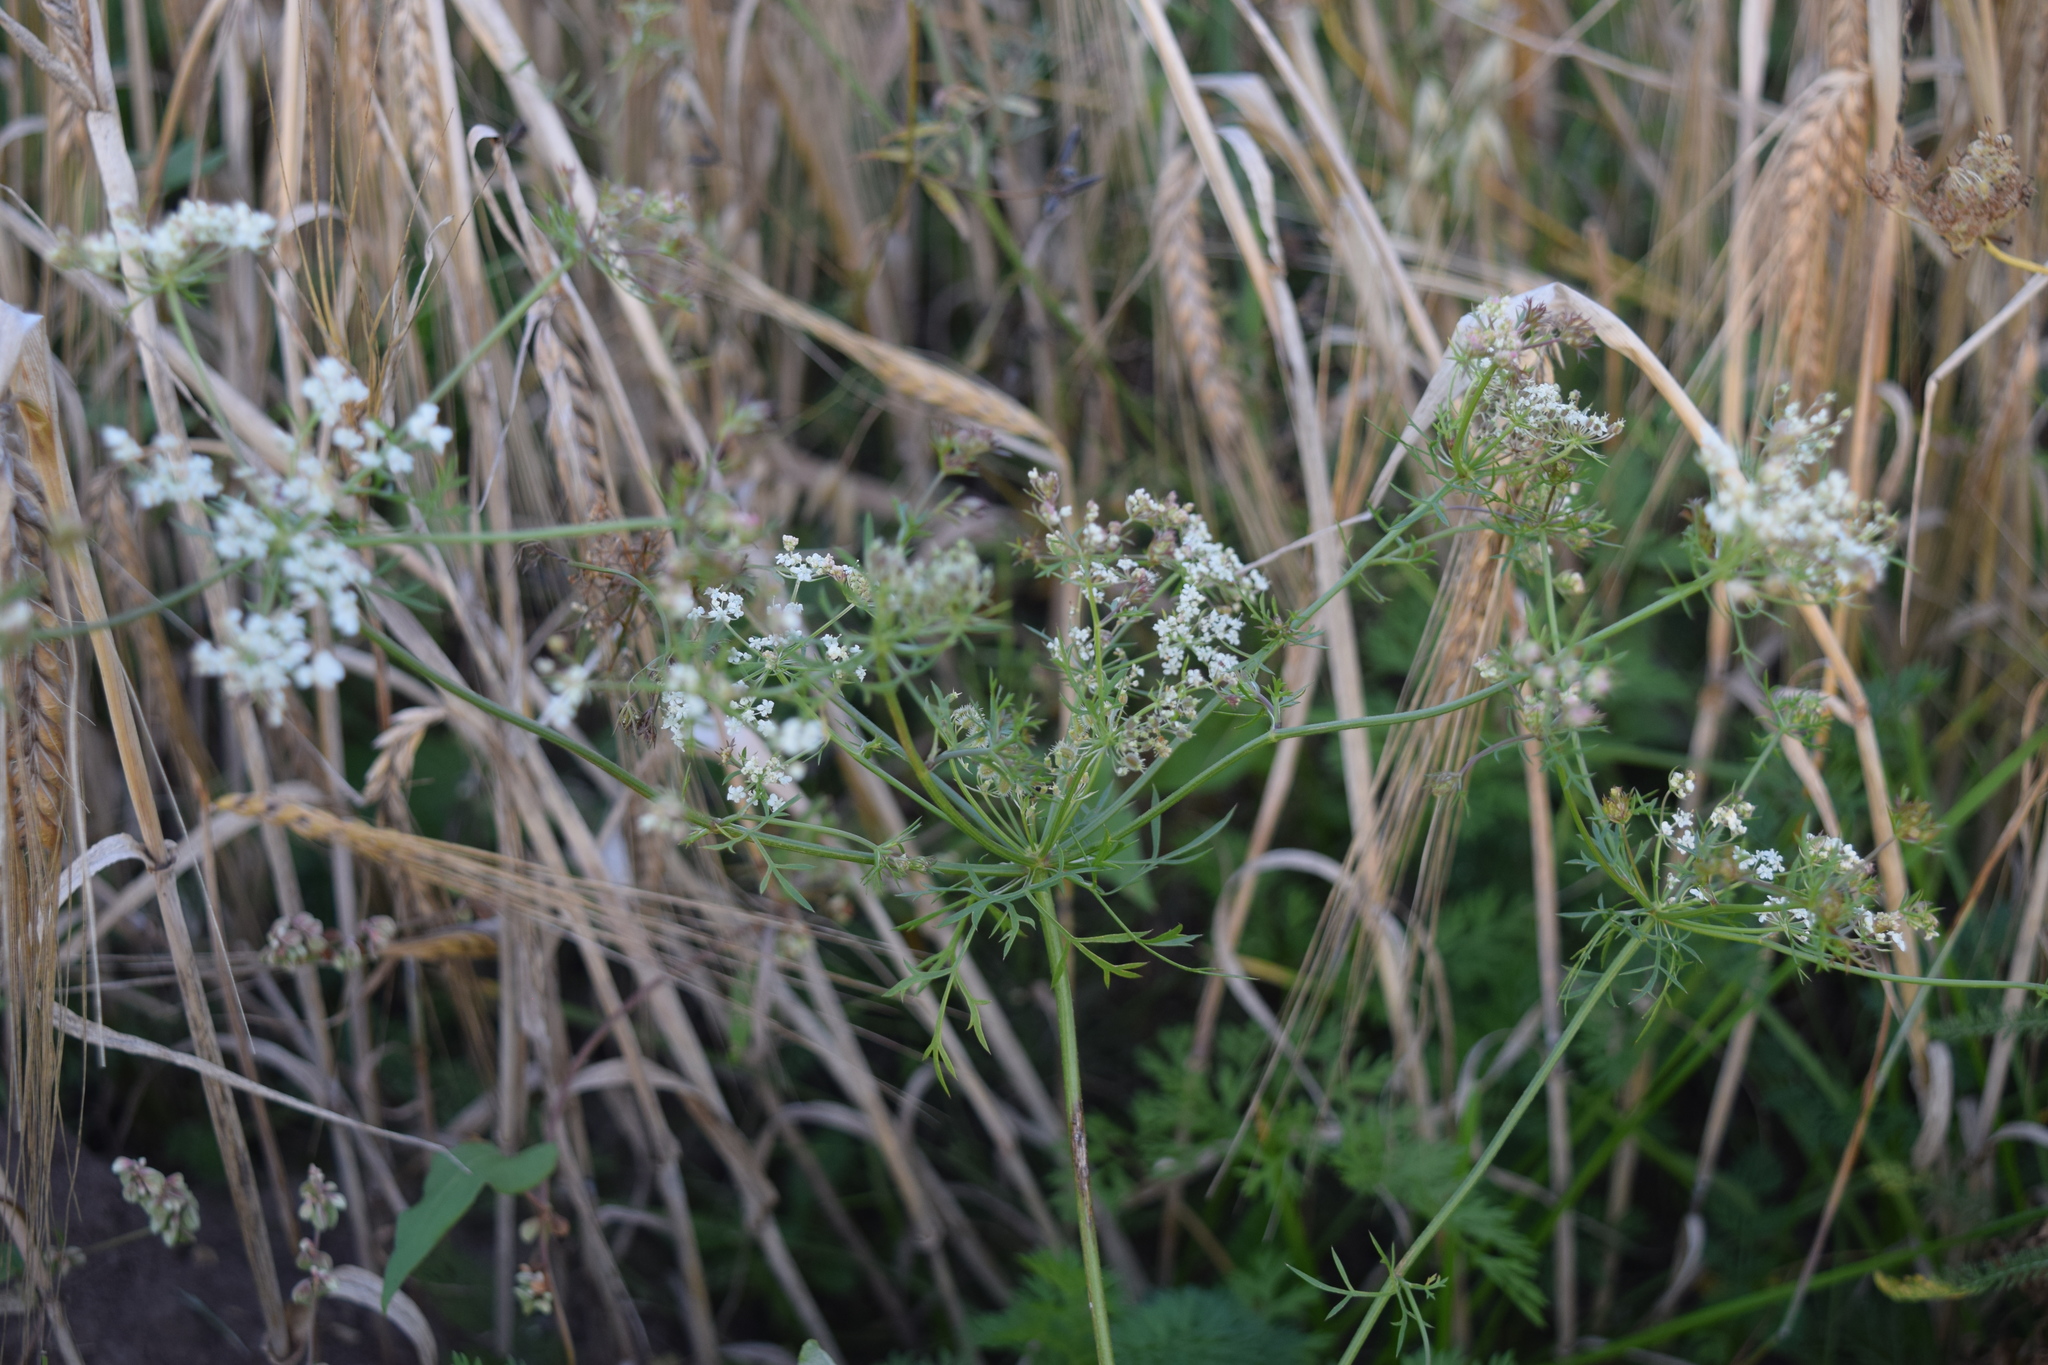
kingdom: Plantae
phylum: Tracheophyta
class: Magnoliopsida
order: Apiales
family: Apiaceae
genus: Daucus
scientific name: Daucus carota
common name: Wild carrot
